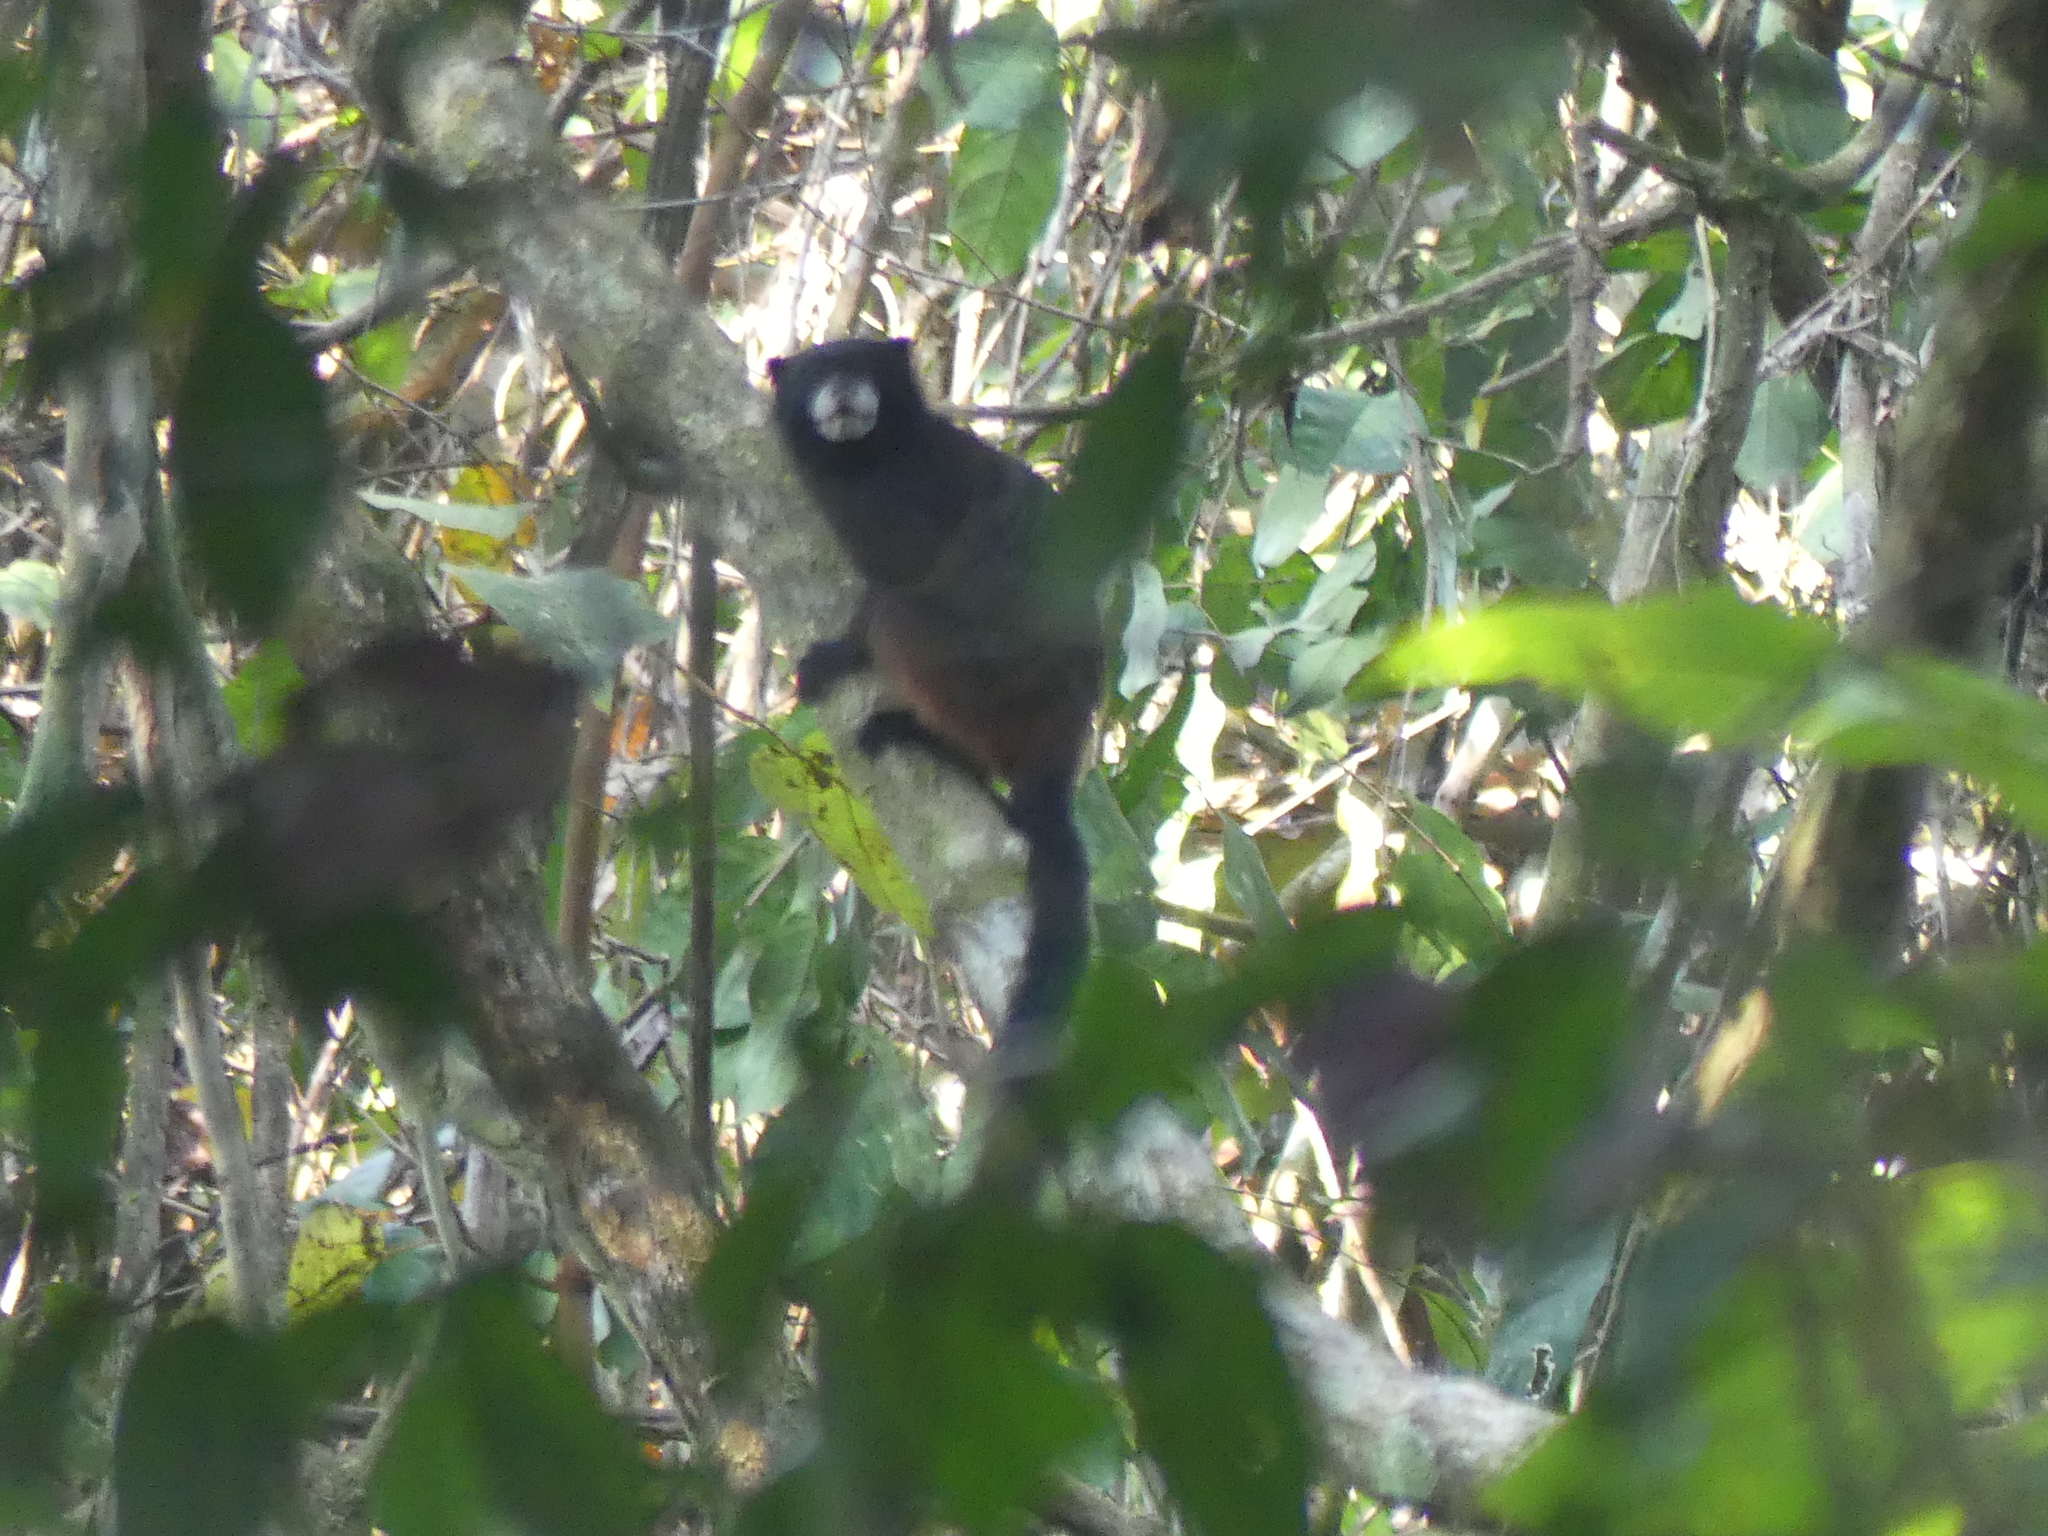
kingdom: Animalia
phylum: Chordata
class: Mammalia
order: Primates
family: Callitrichidae
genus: Leontocebus
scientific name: Leontocebus leucogenys
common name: Andean saddle-back tamarin
